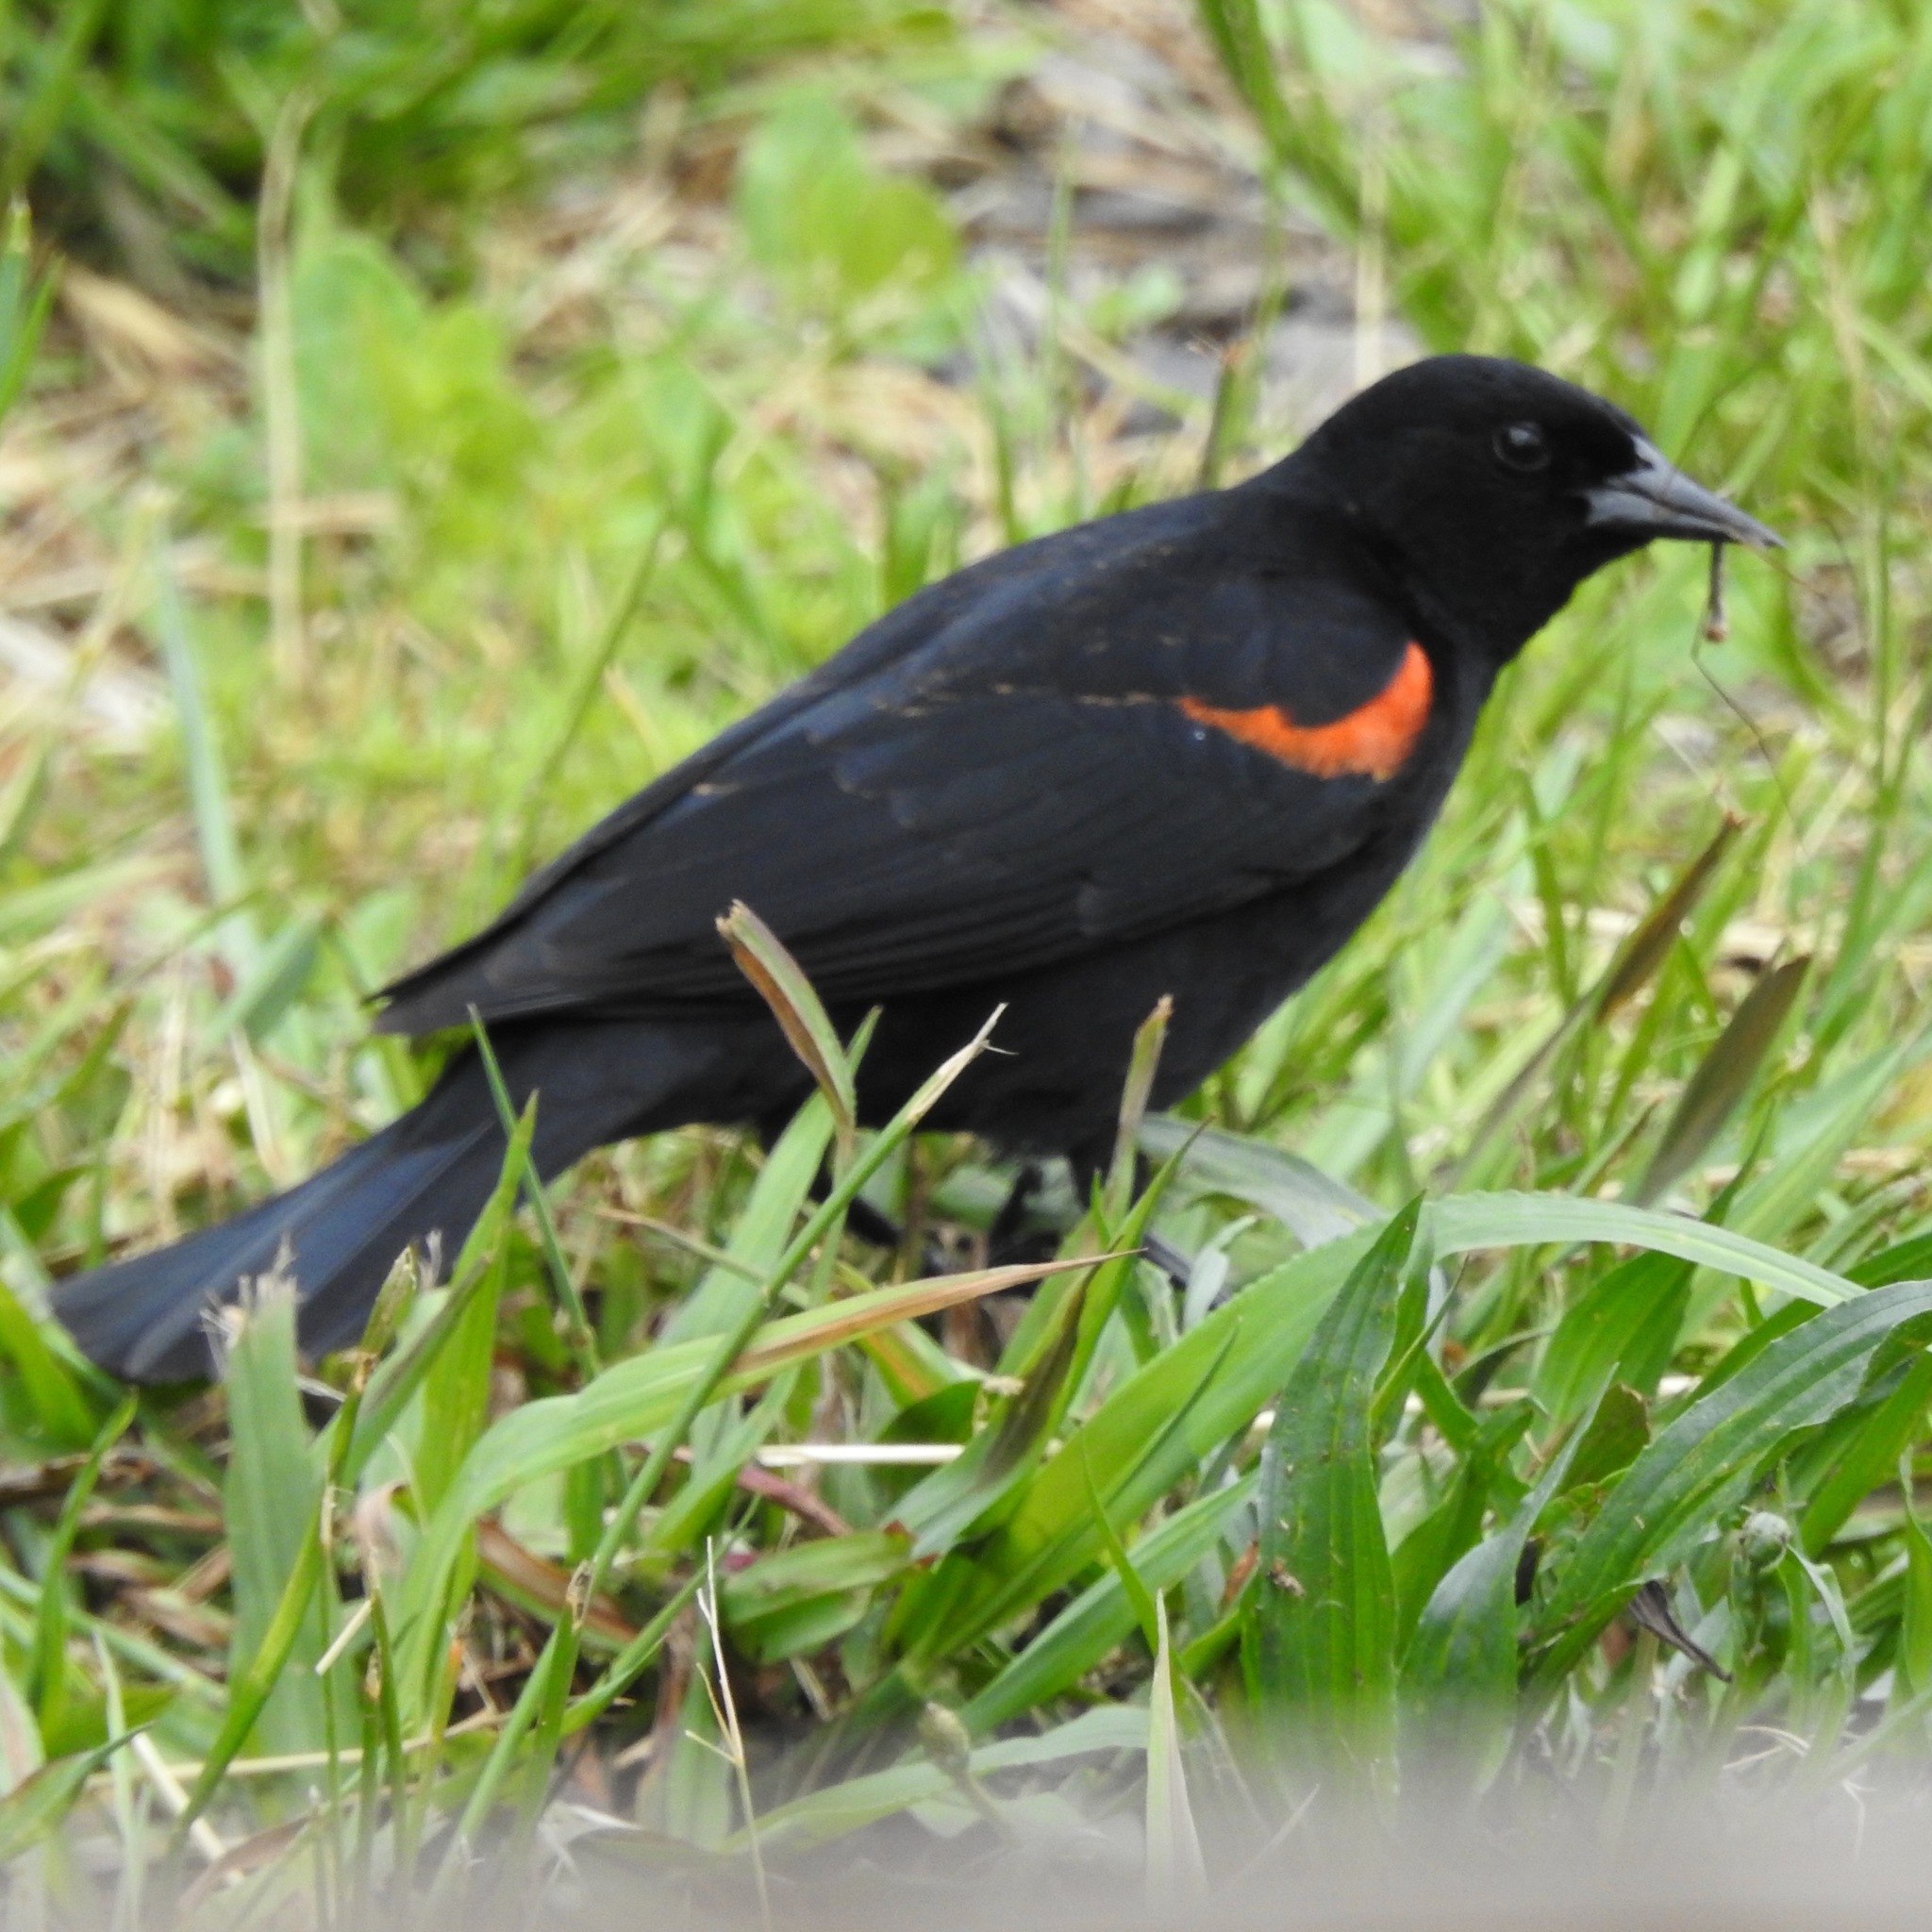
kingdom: Animalia
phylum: Chordata
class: Aves
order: Passeriformes
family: Icteridae
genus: Agelaius
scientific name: Agelaius phoeniceus
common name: Red-winged blackbird
